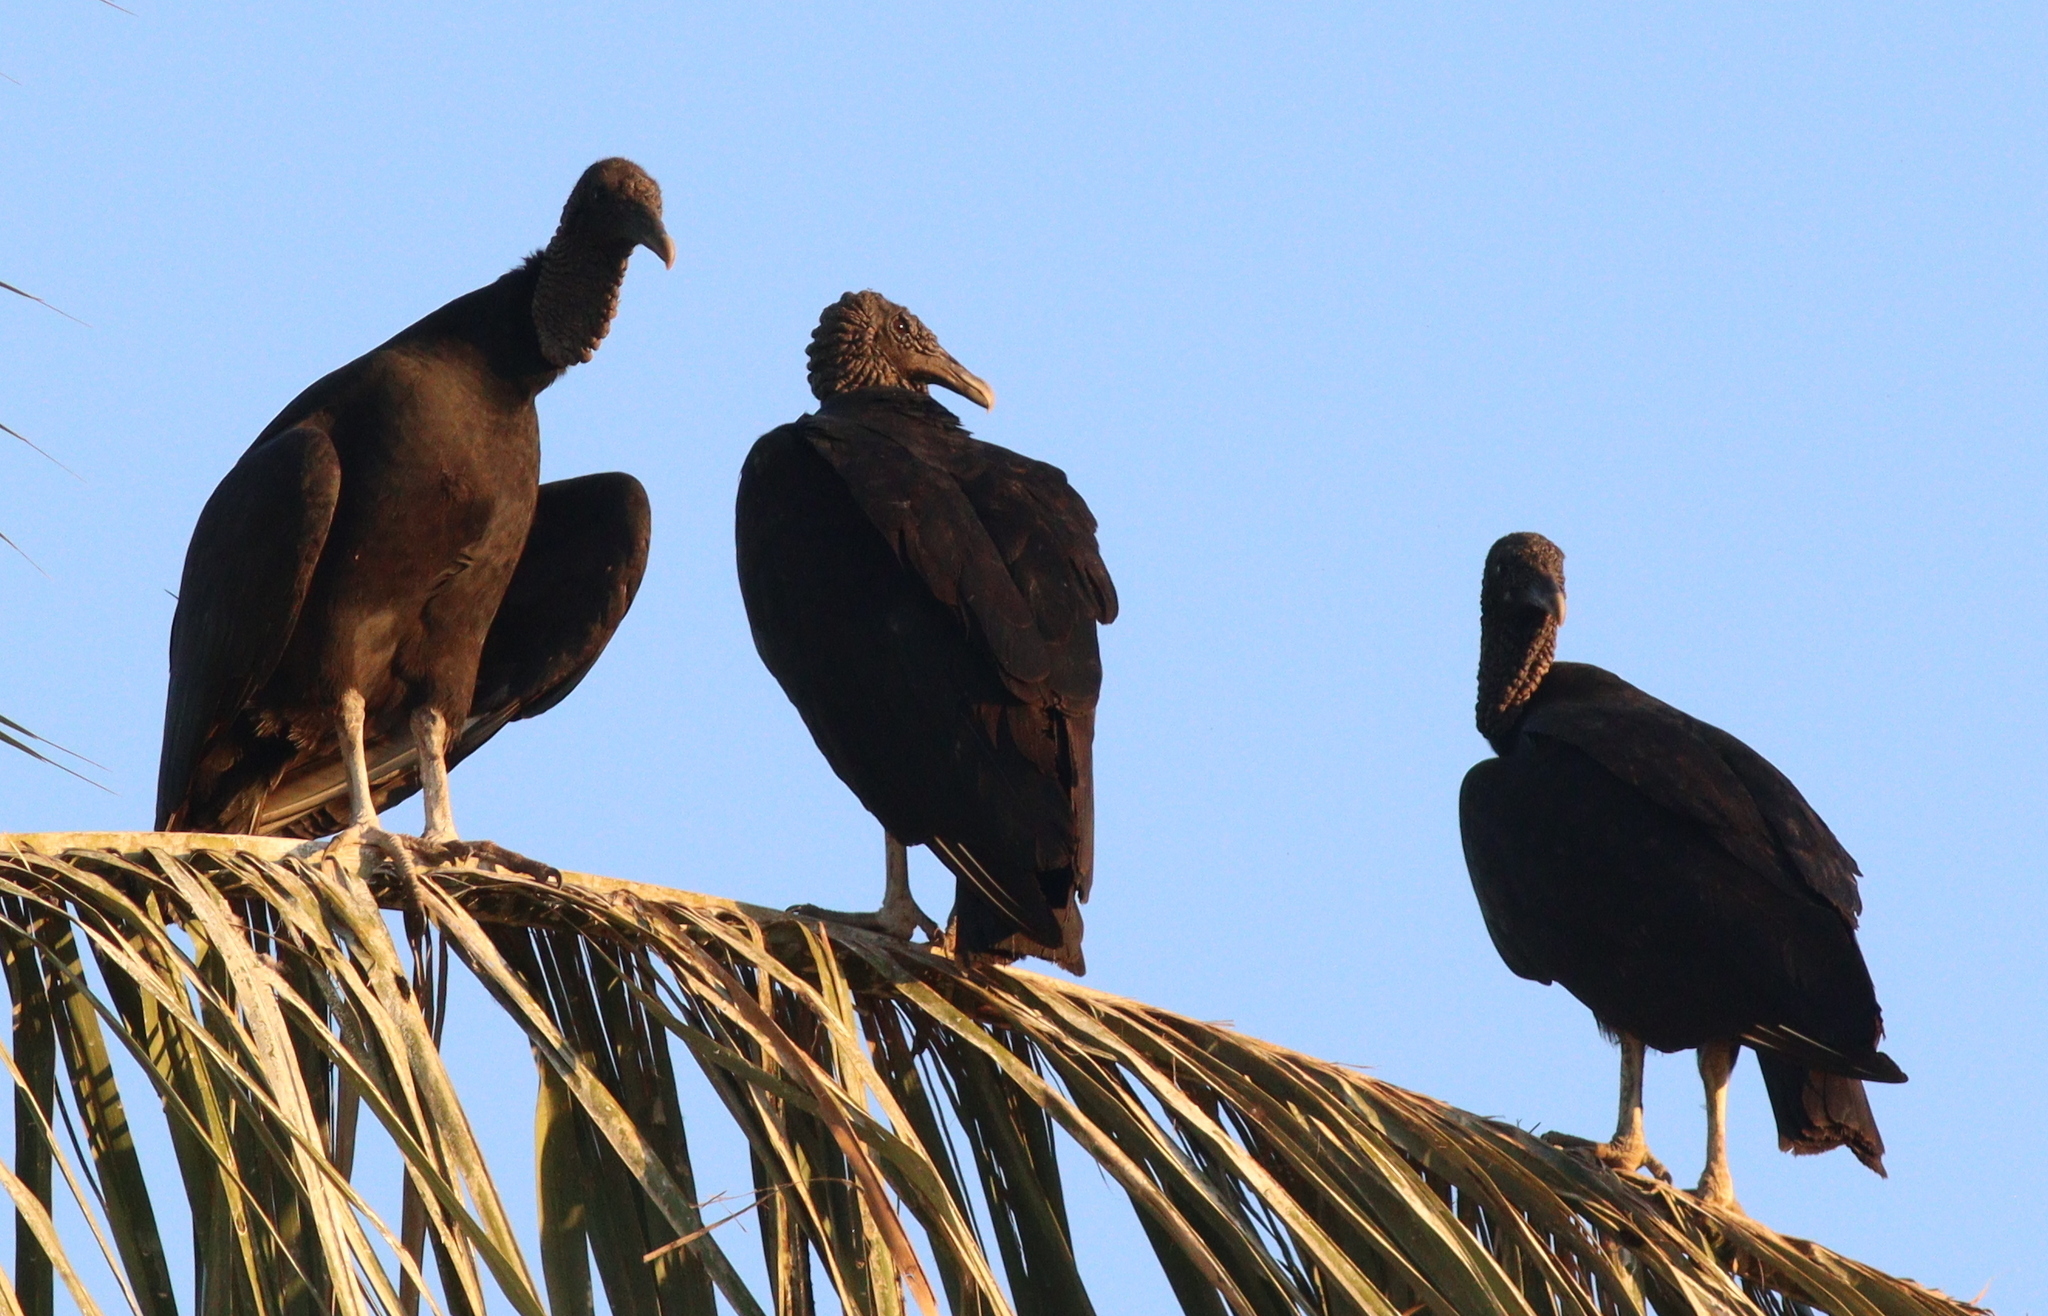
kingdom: Animalia
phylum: Chordata
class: Aves
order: Accipitriformes
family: Cathartidae
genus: Coragyps
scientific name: Coragyps atratus
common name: Black vulture
